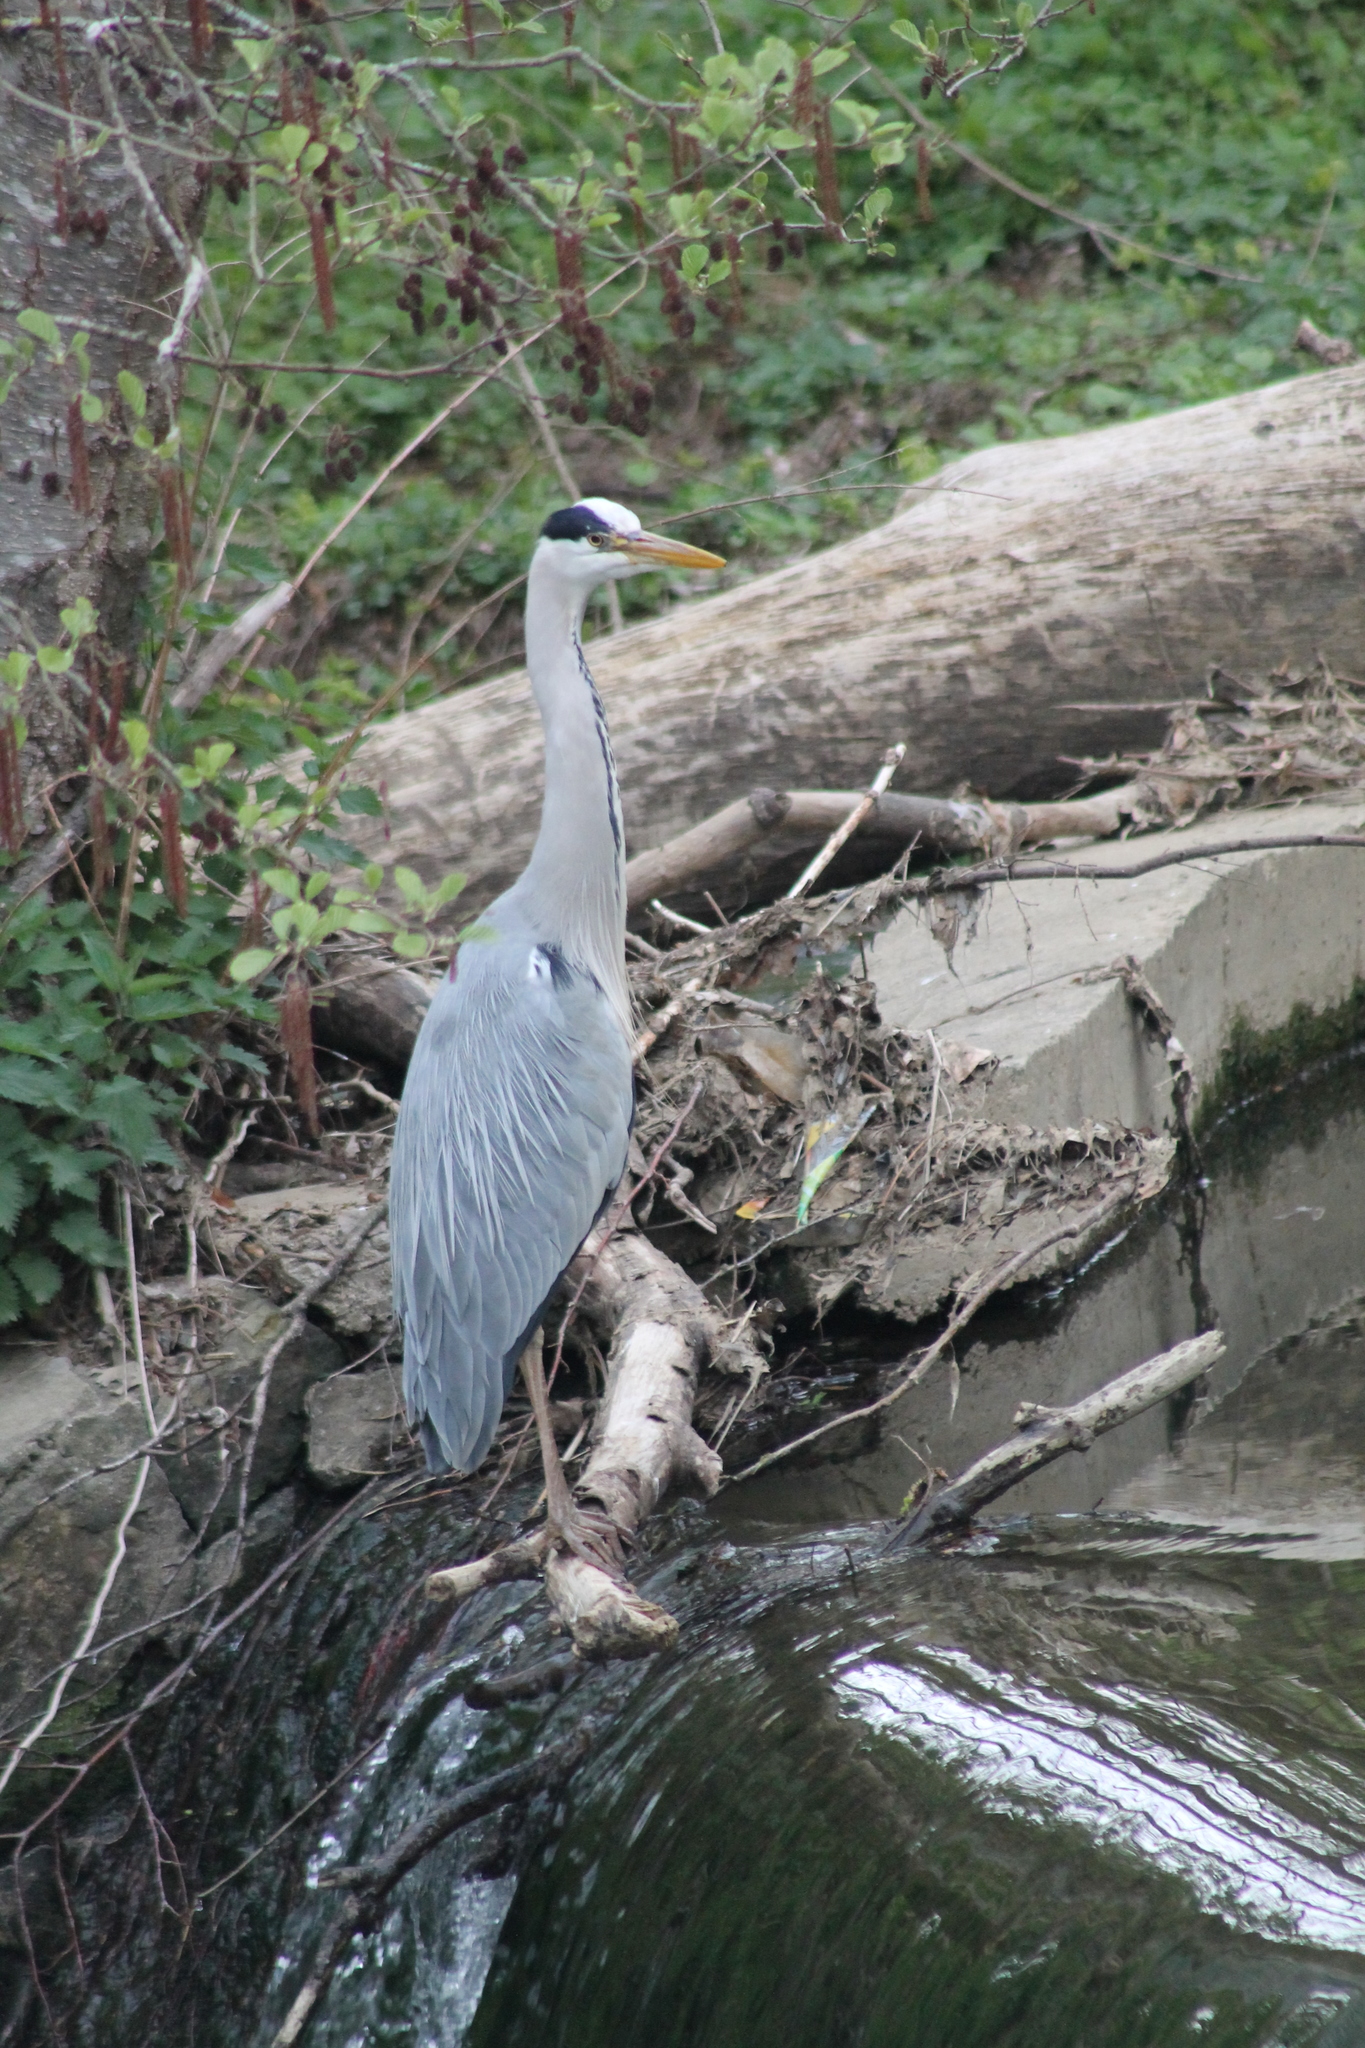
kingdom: Animalia
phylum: Chordata
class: Aves
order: Pelecaniformes
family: Ardeidae
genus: Ardea
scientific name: Ardea cinerea
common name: Grey heron
